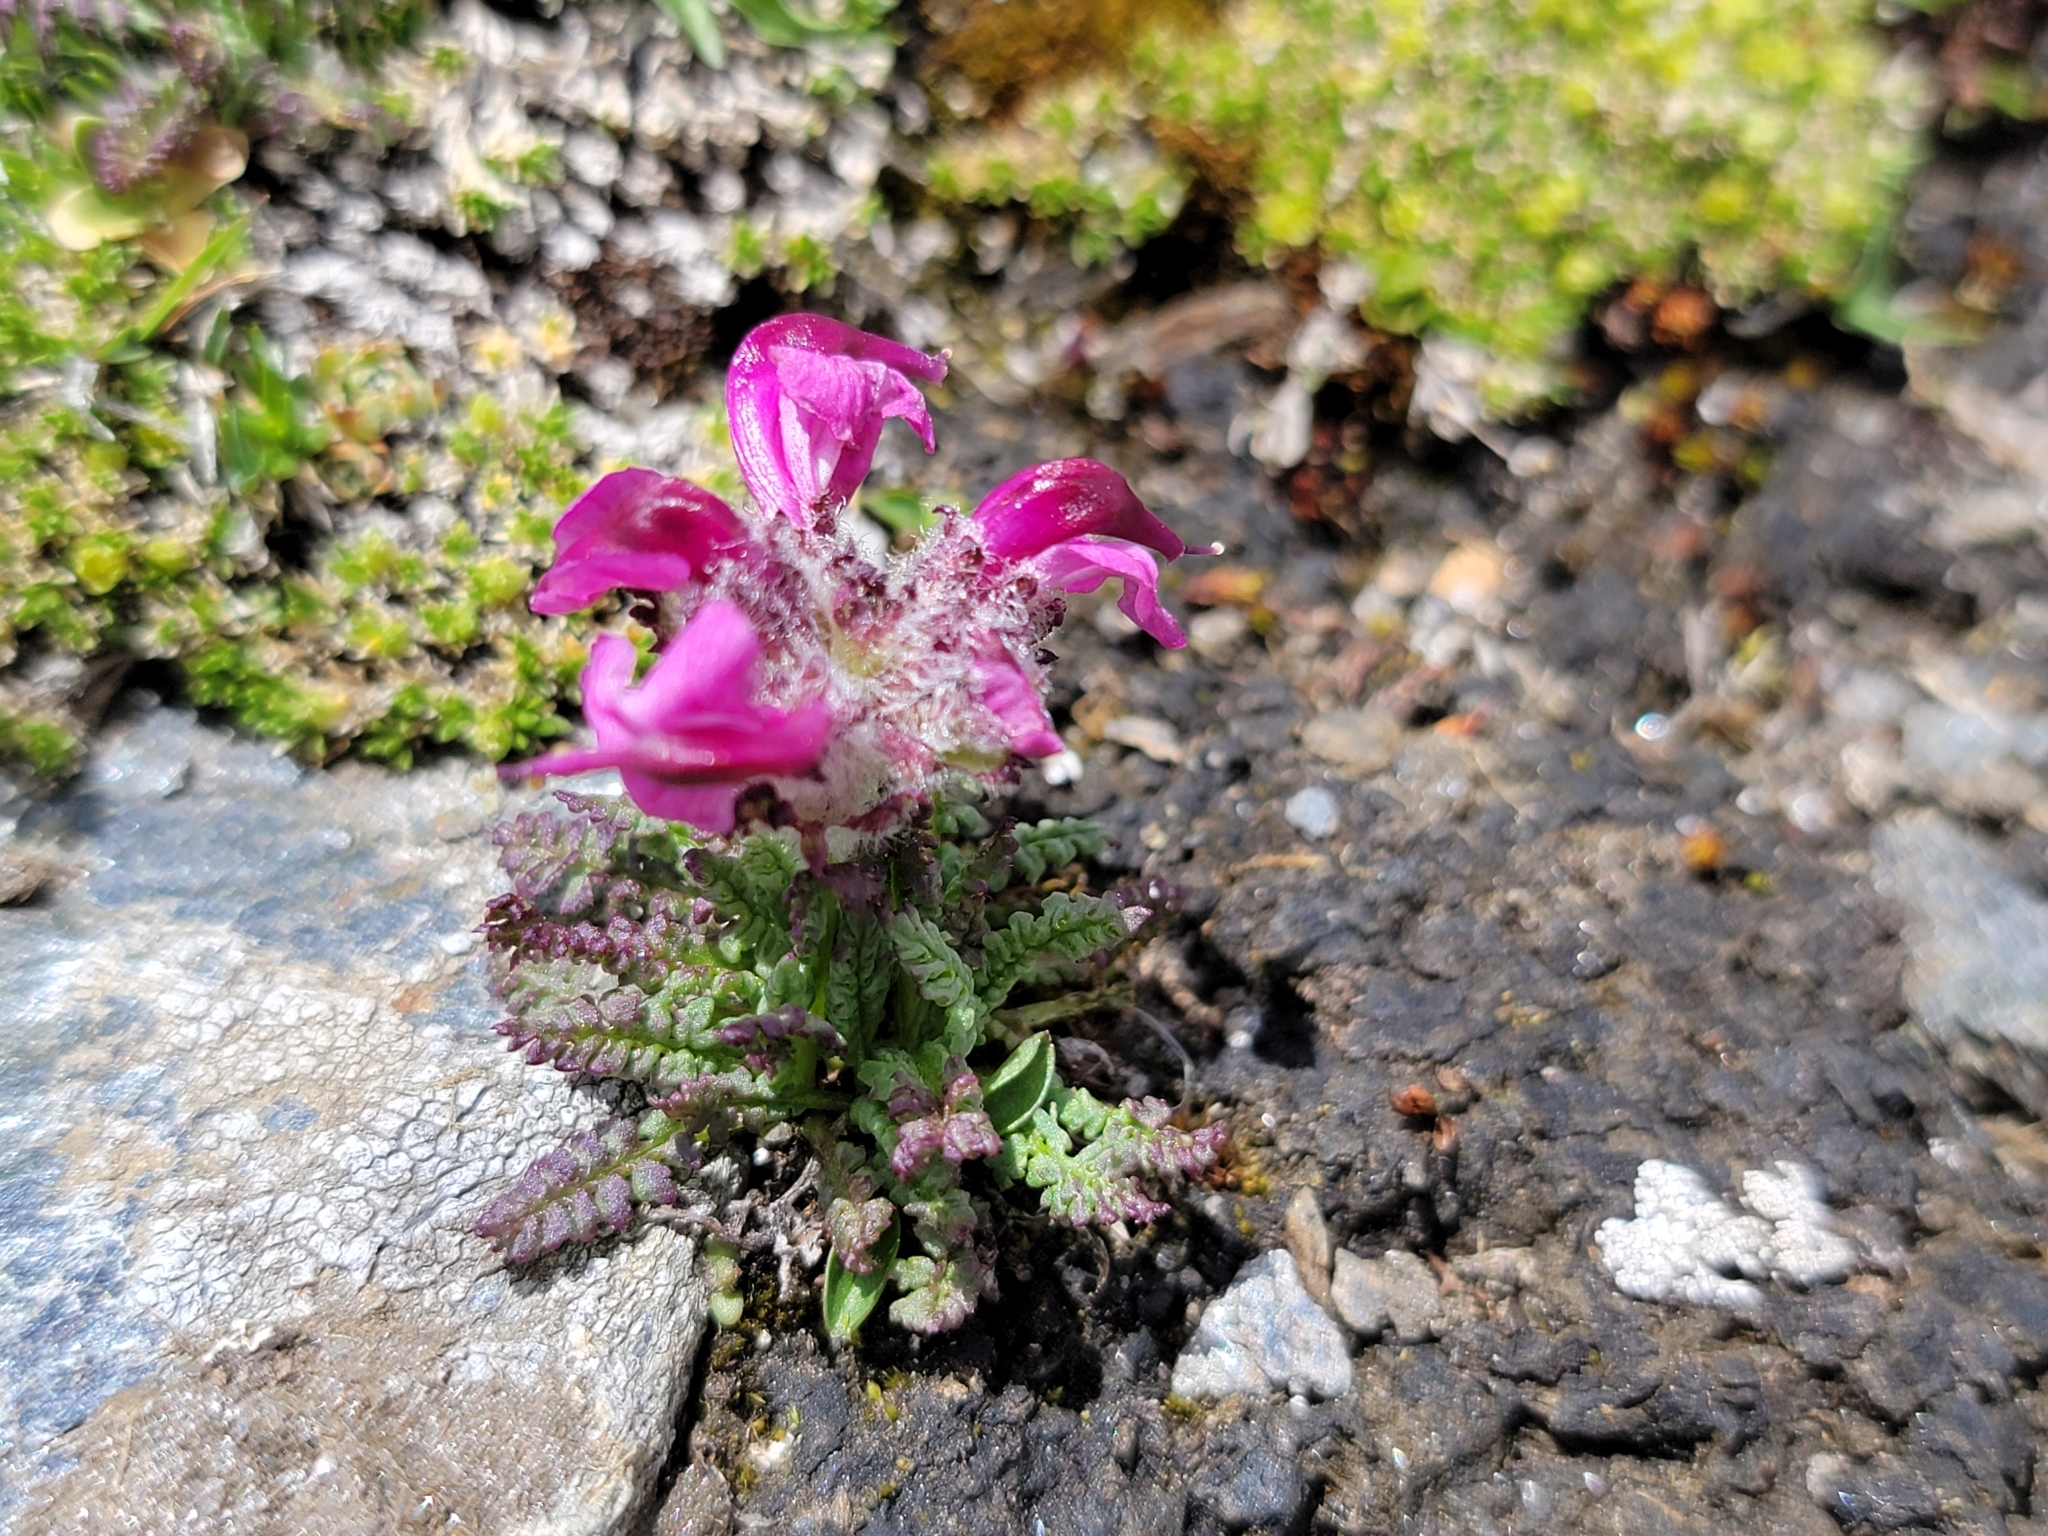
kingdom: Plantae
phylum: Tracheophyta
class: Magnoliopsida
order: Lamiales
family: Orobanchaceae
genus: Pedicularis
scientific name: Pedicularis asplenifolia
